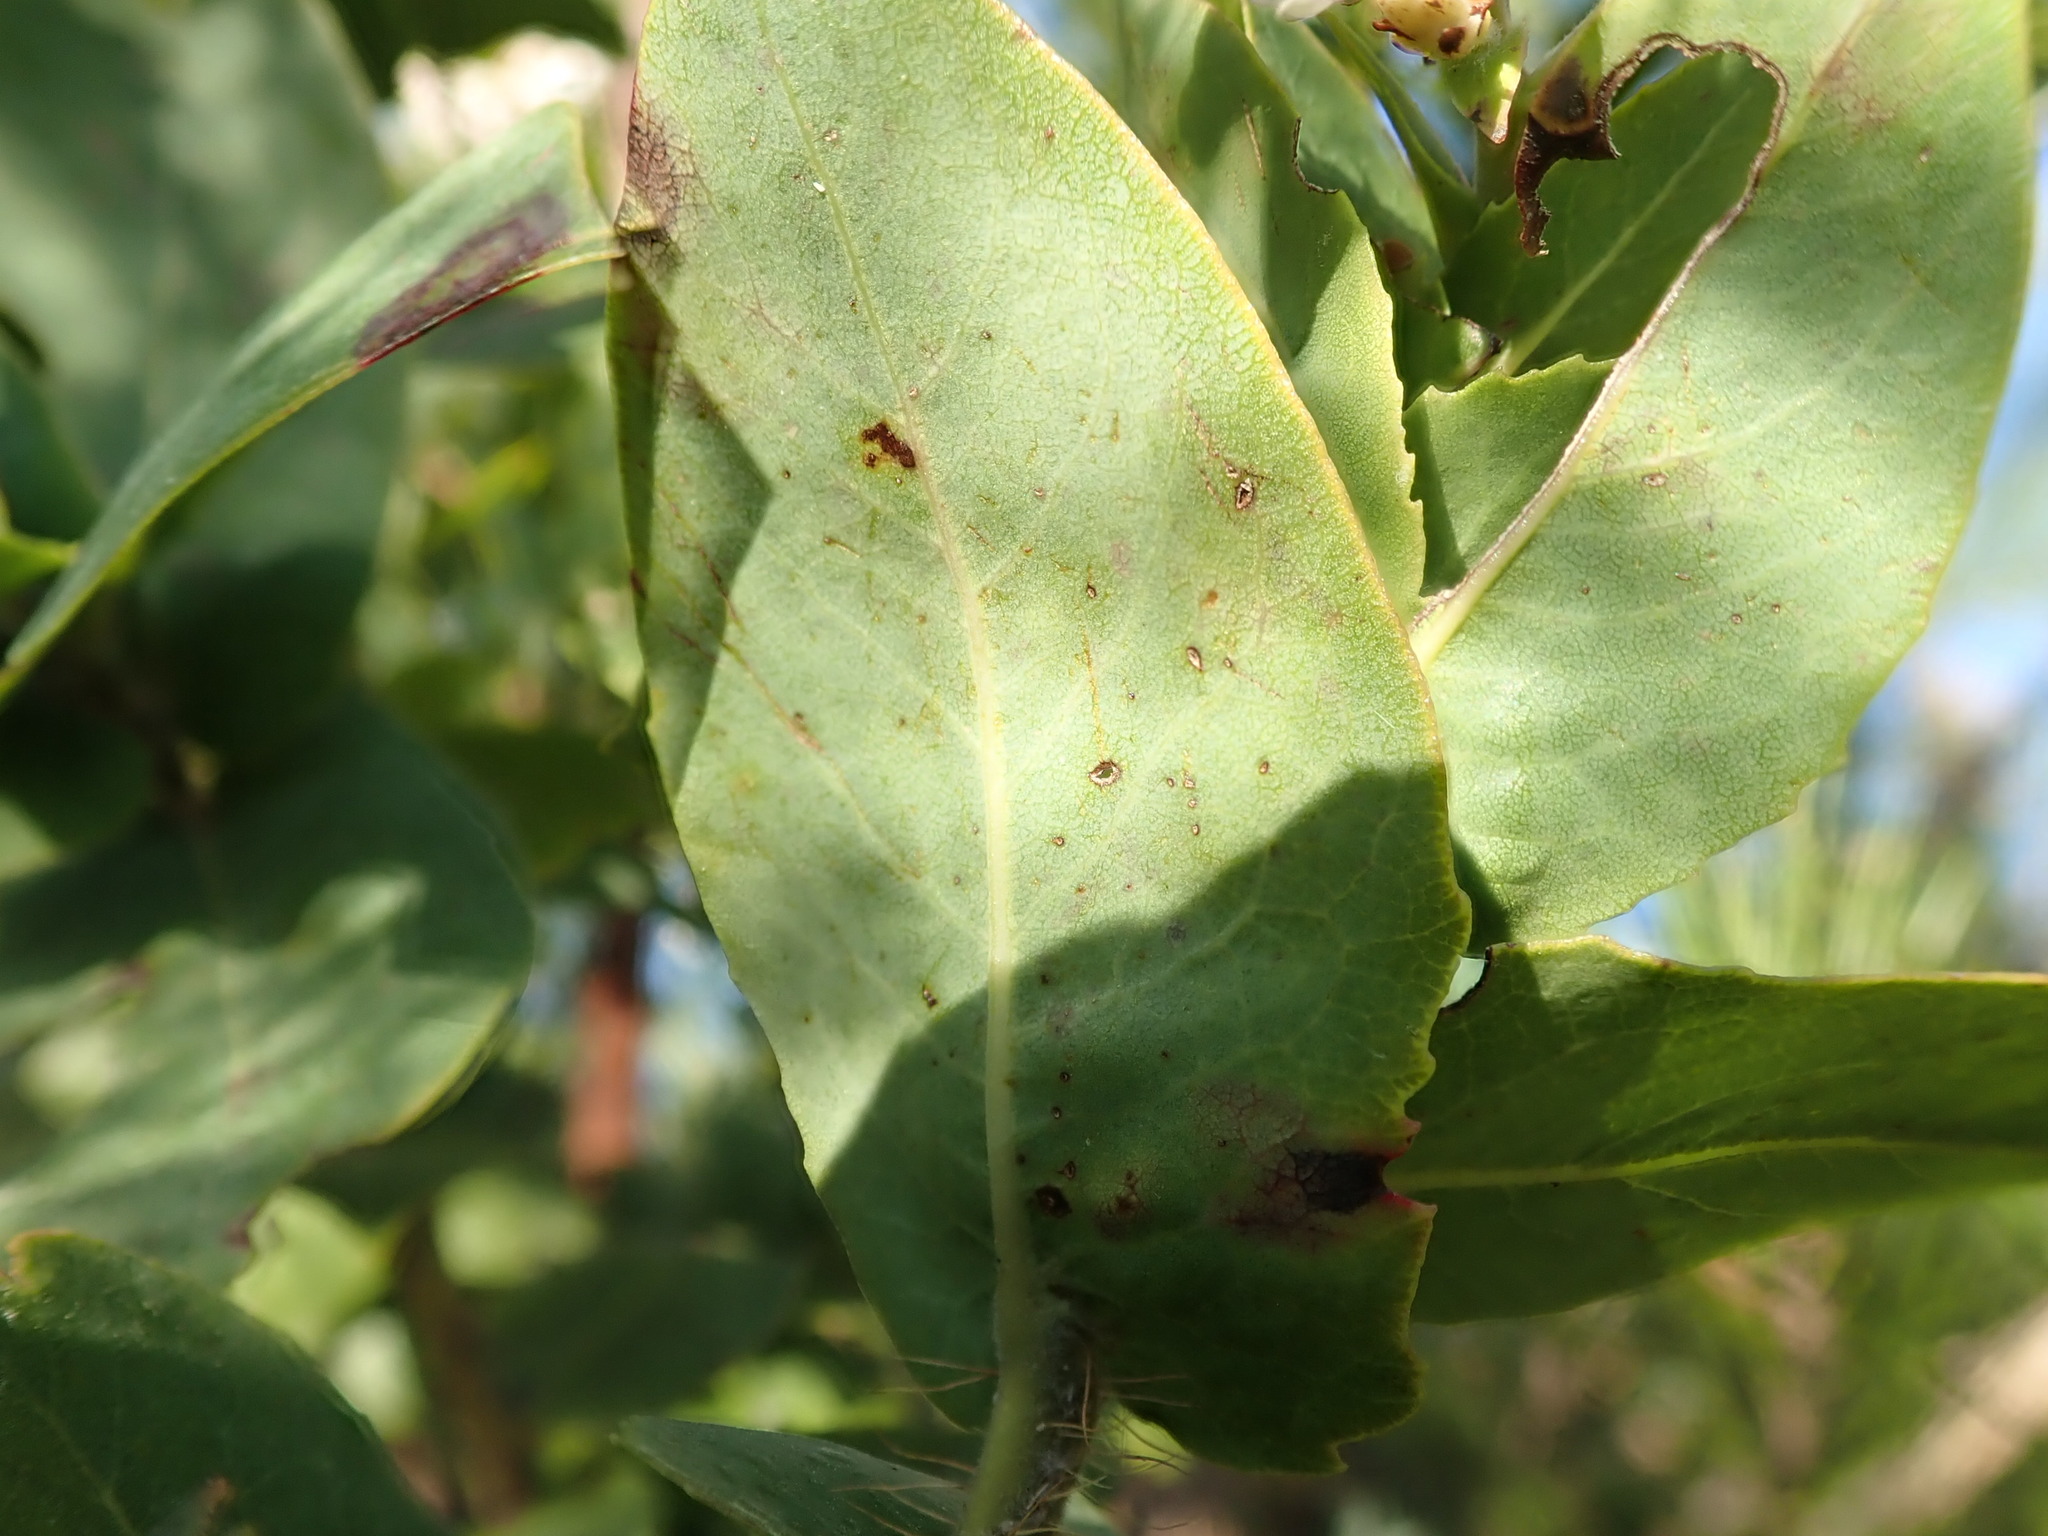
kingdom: Plantae
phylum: Tracheophyta
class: Magnoliopsida
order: Ericales
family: Ericaceae
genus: Arctostaphylos
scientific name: Arctostaphylos andersonii
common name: Santa cruz manzanita
